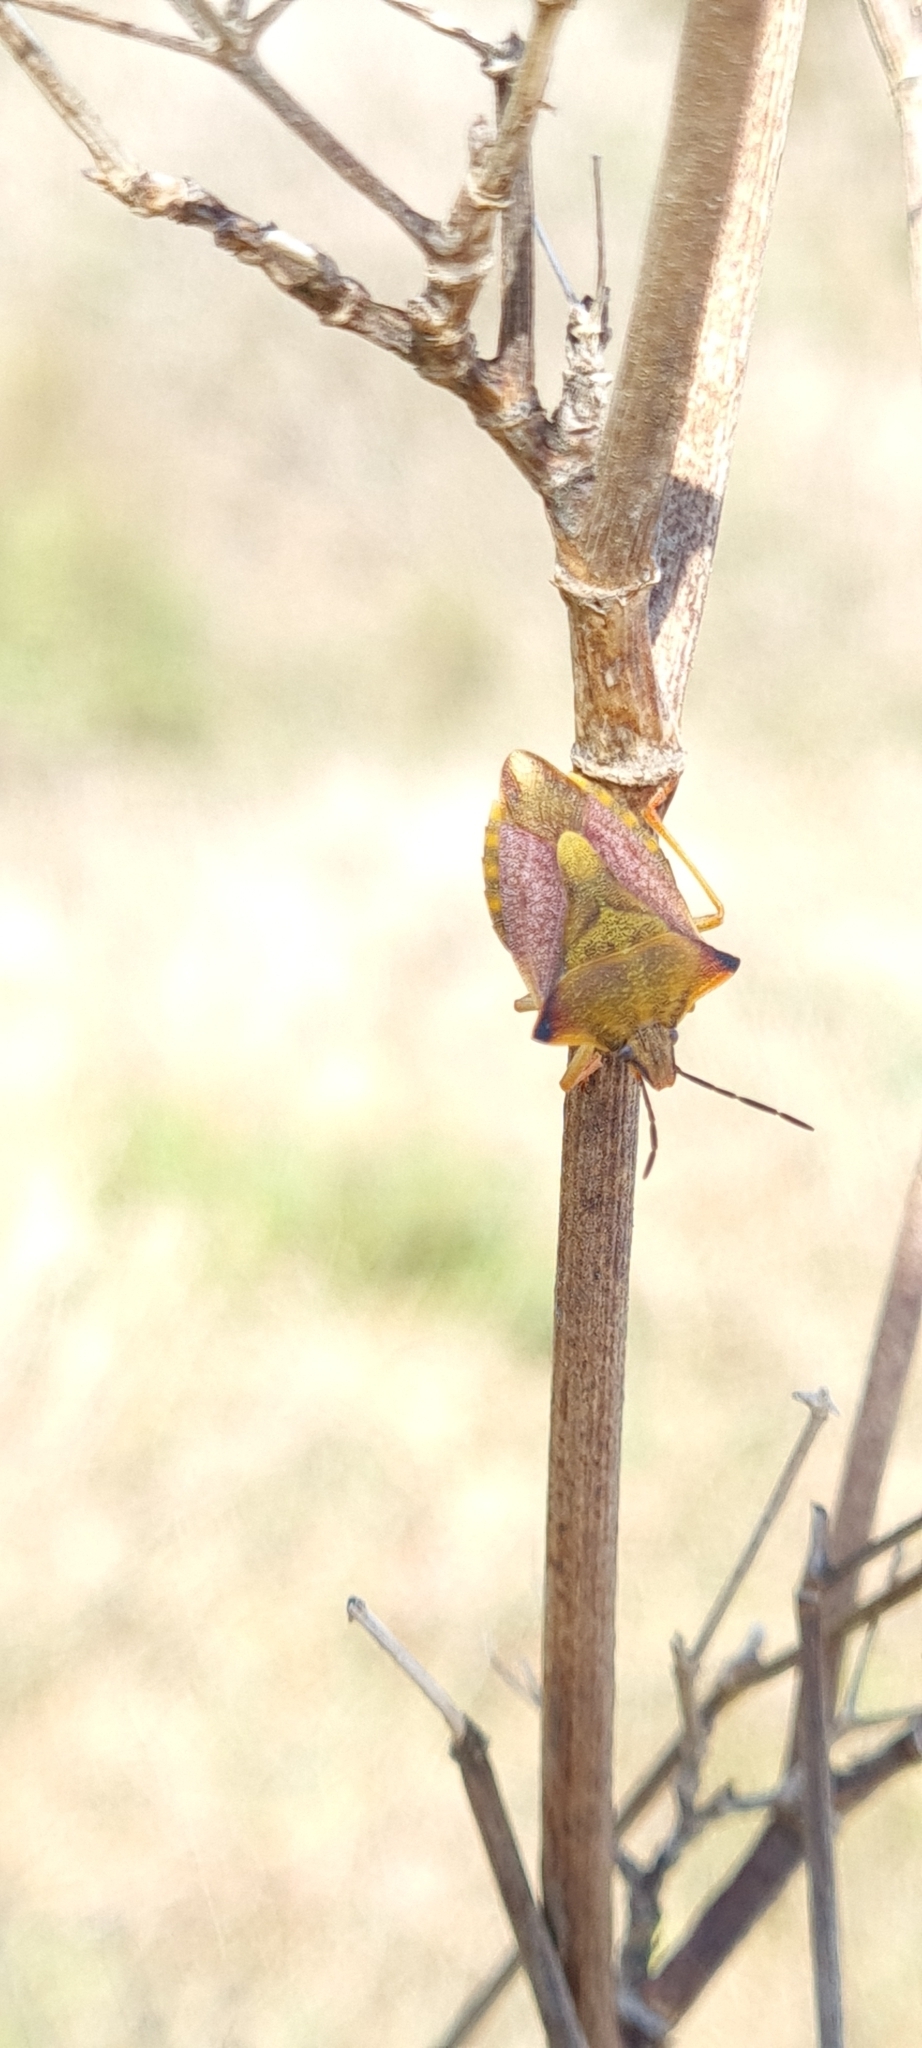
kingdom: Animalia
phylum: Arthropoda
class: Insecta
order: Hemiptera
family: Pentatomidae
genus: Carpocoris
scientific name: Carpocoris mediterraneus
